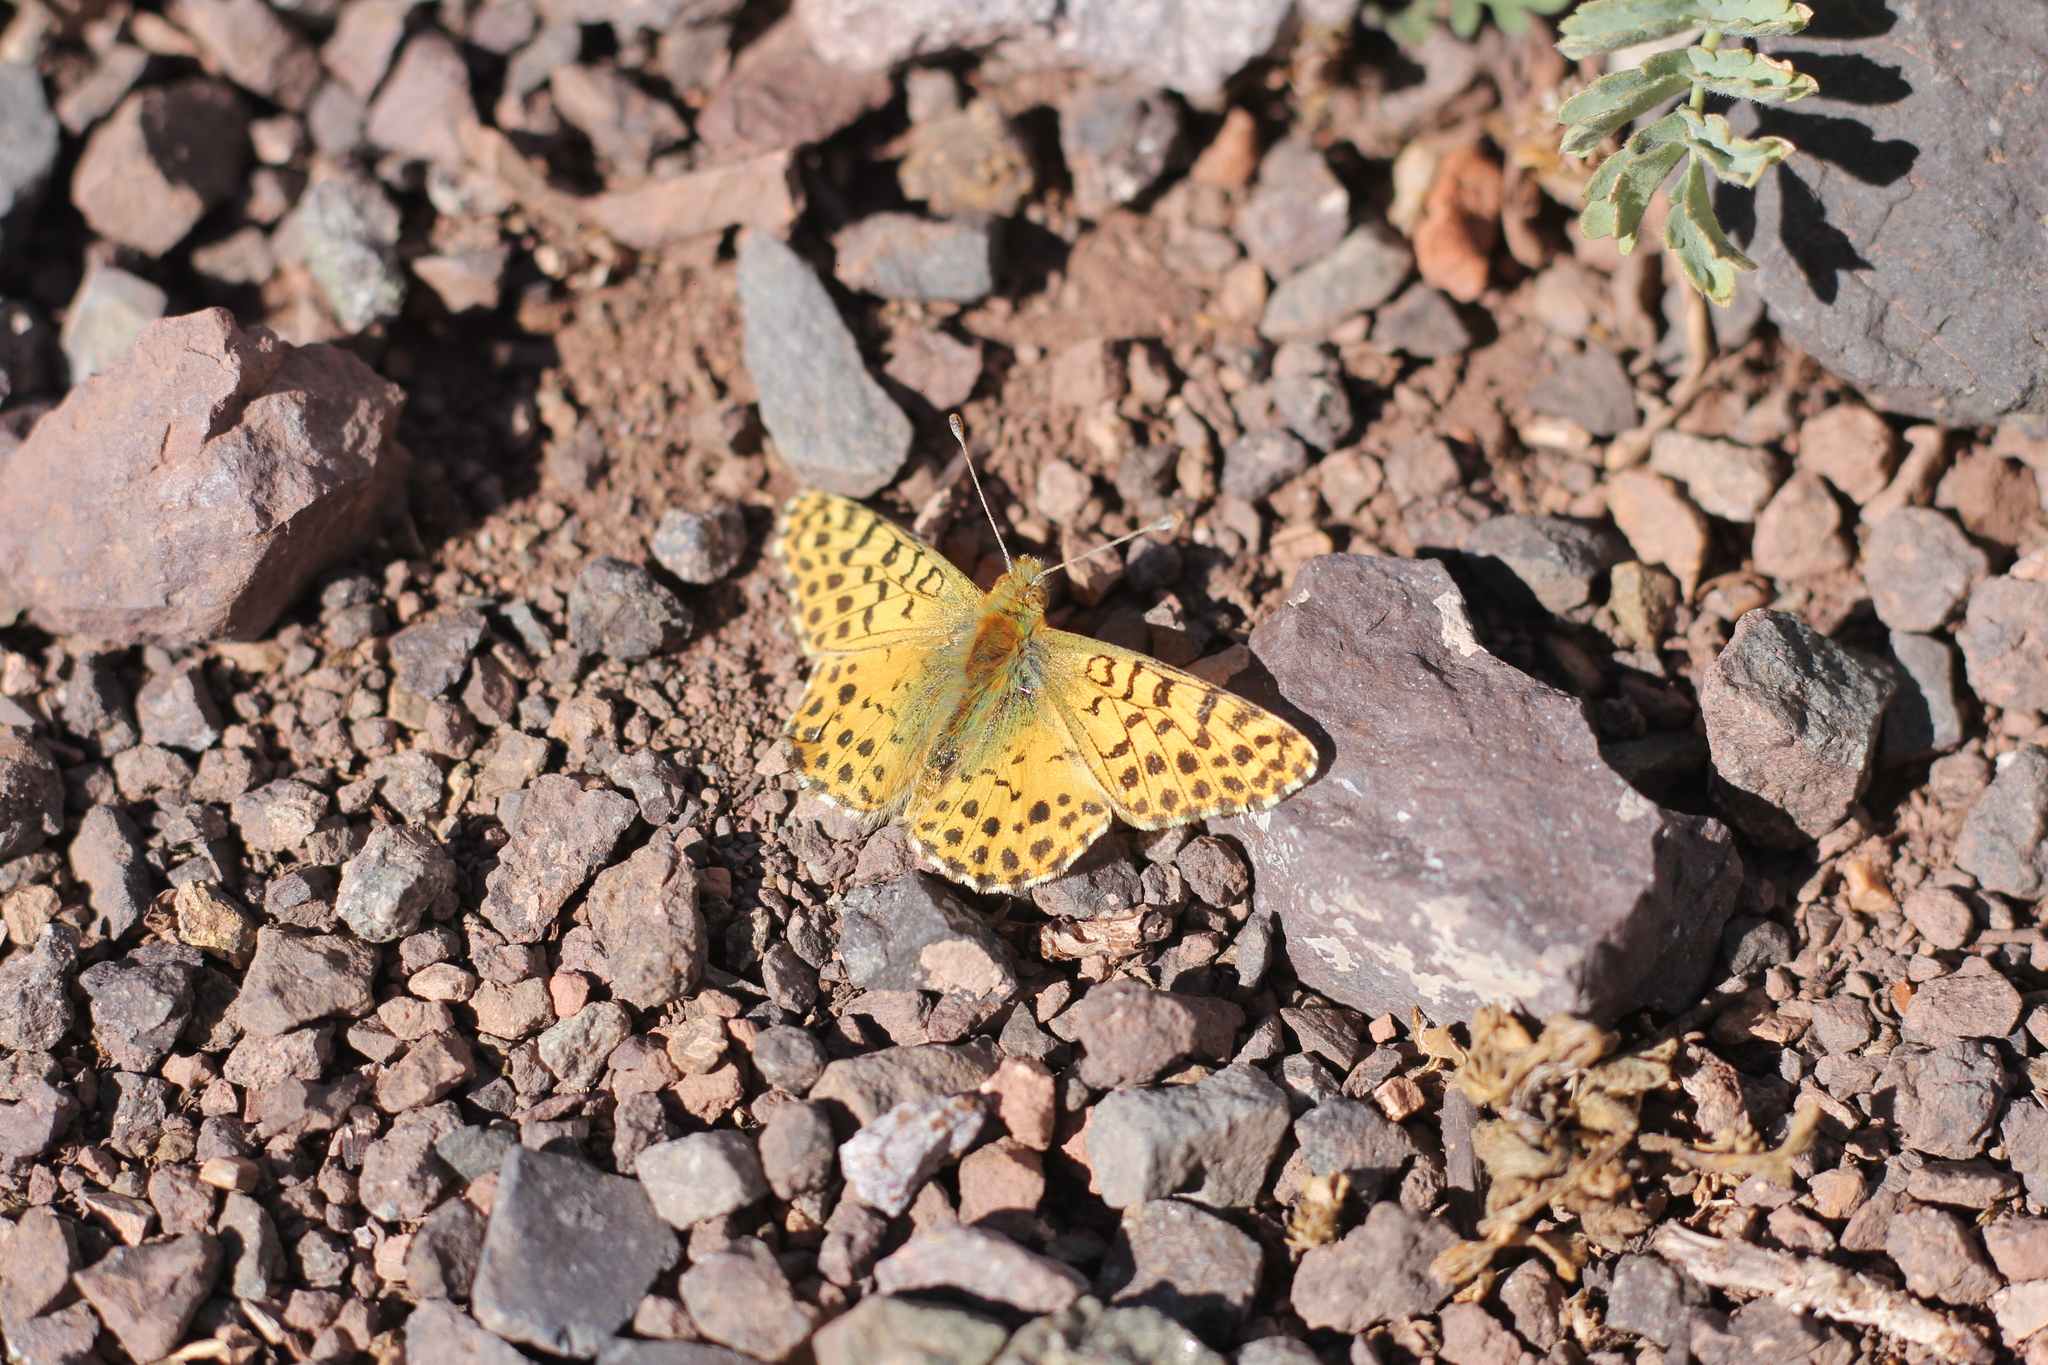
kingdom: Animalia
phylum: Arthropoda
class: Insecta
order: Lepidoptera
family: Nymphalidae
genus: Issoria
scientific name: Issoria Yramea lathonoides
